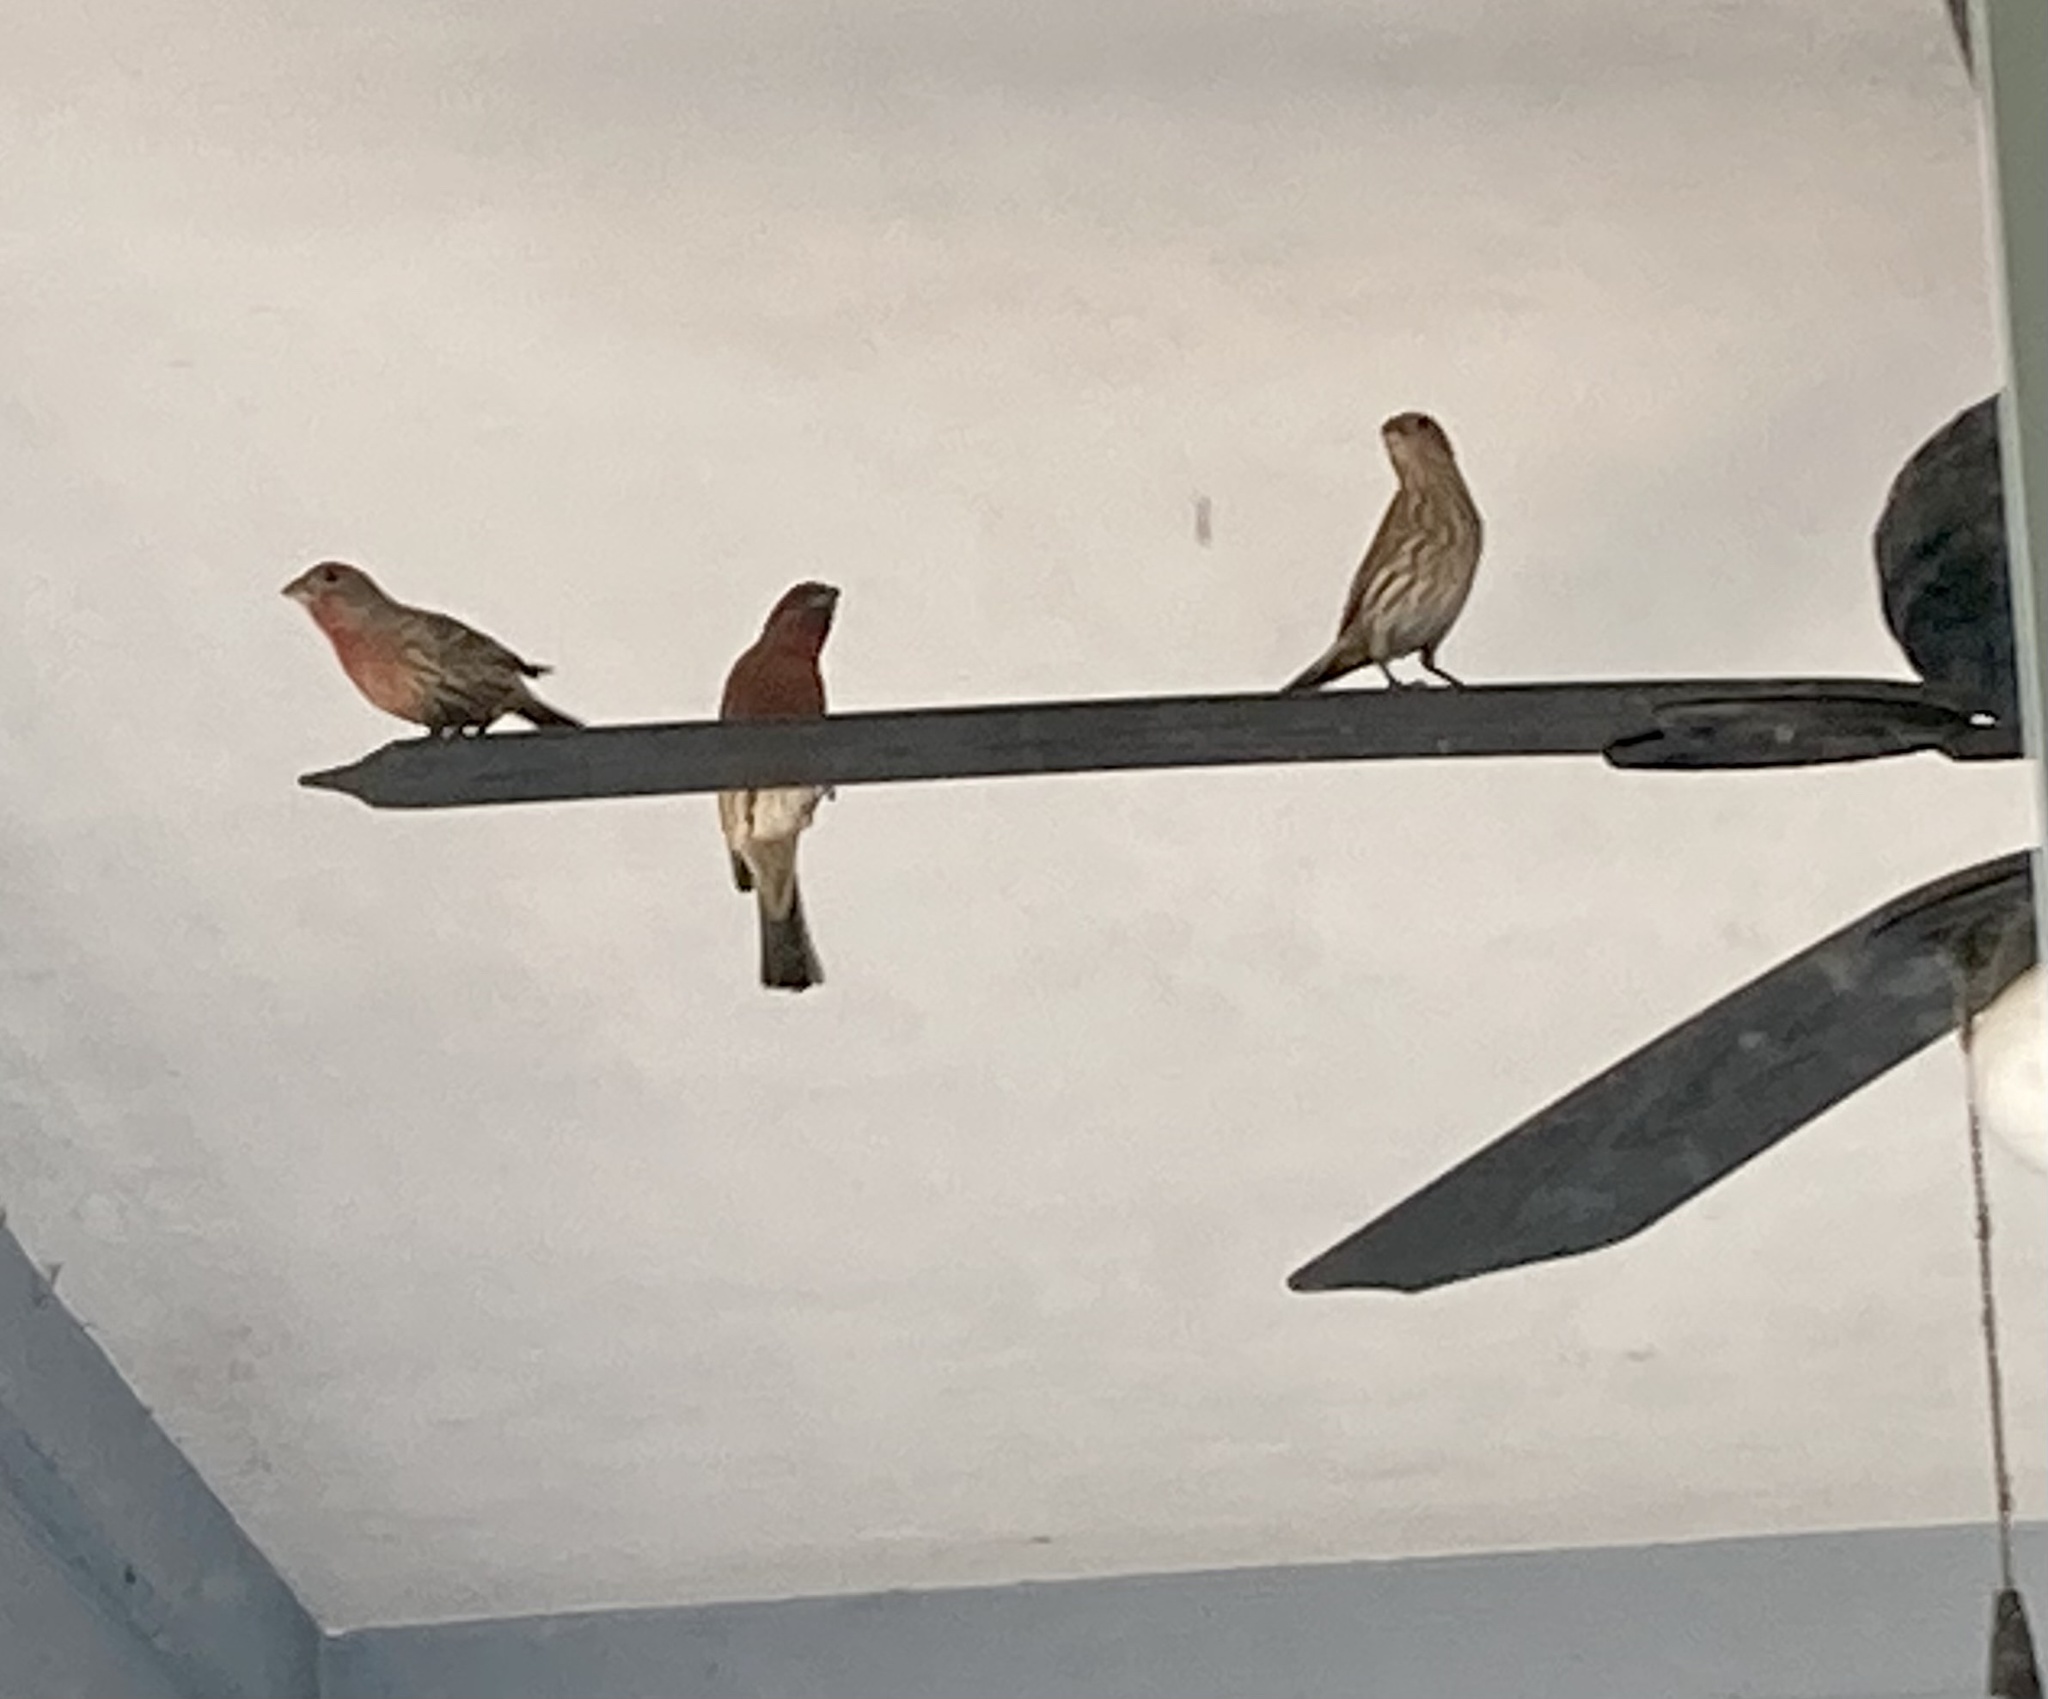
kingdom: Animalia
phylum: Chordata
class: Aves
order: Passeriformes
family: Fringillidae
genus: Haemorhous
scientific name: Haemorhous mexicanus
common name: House finch
